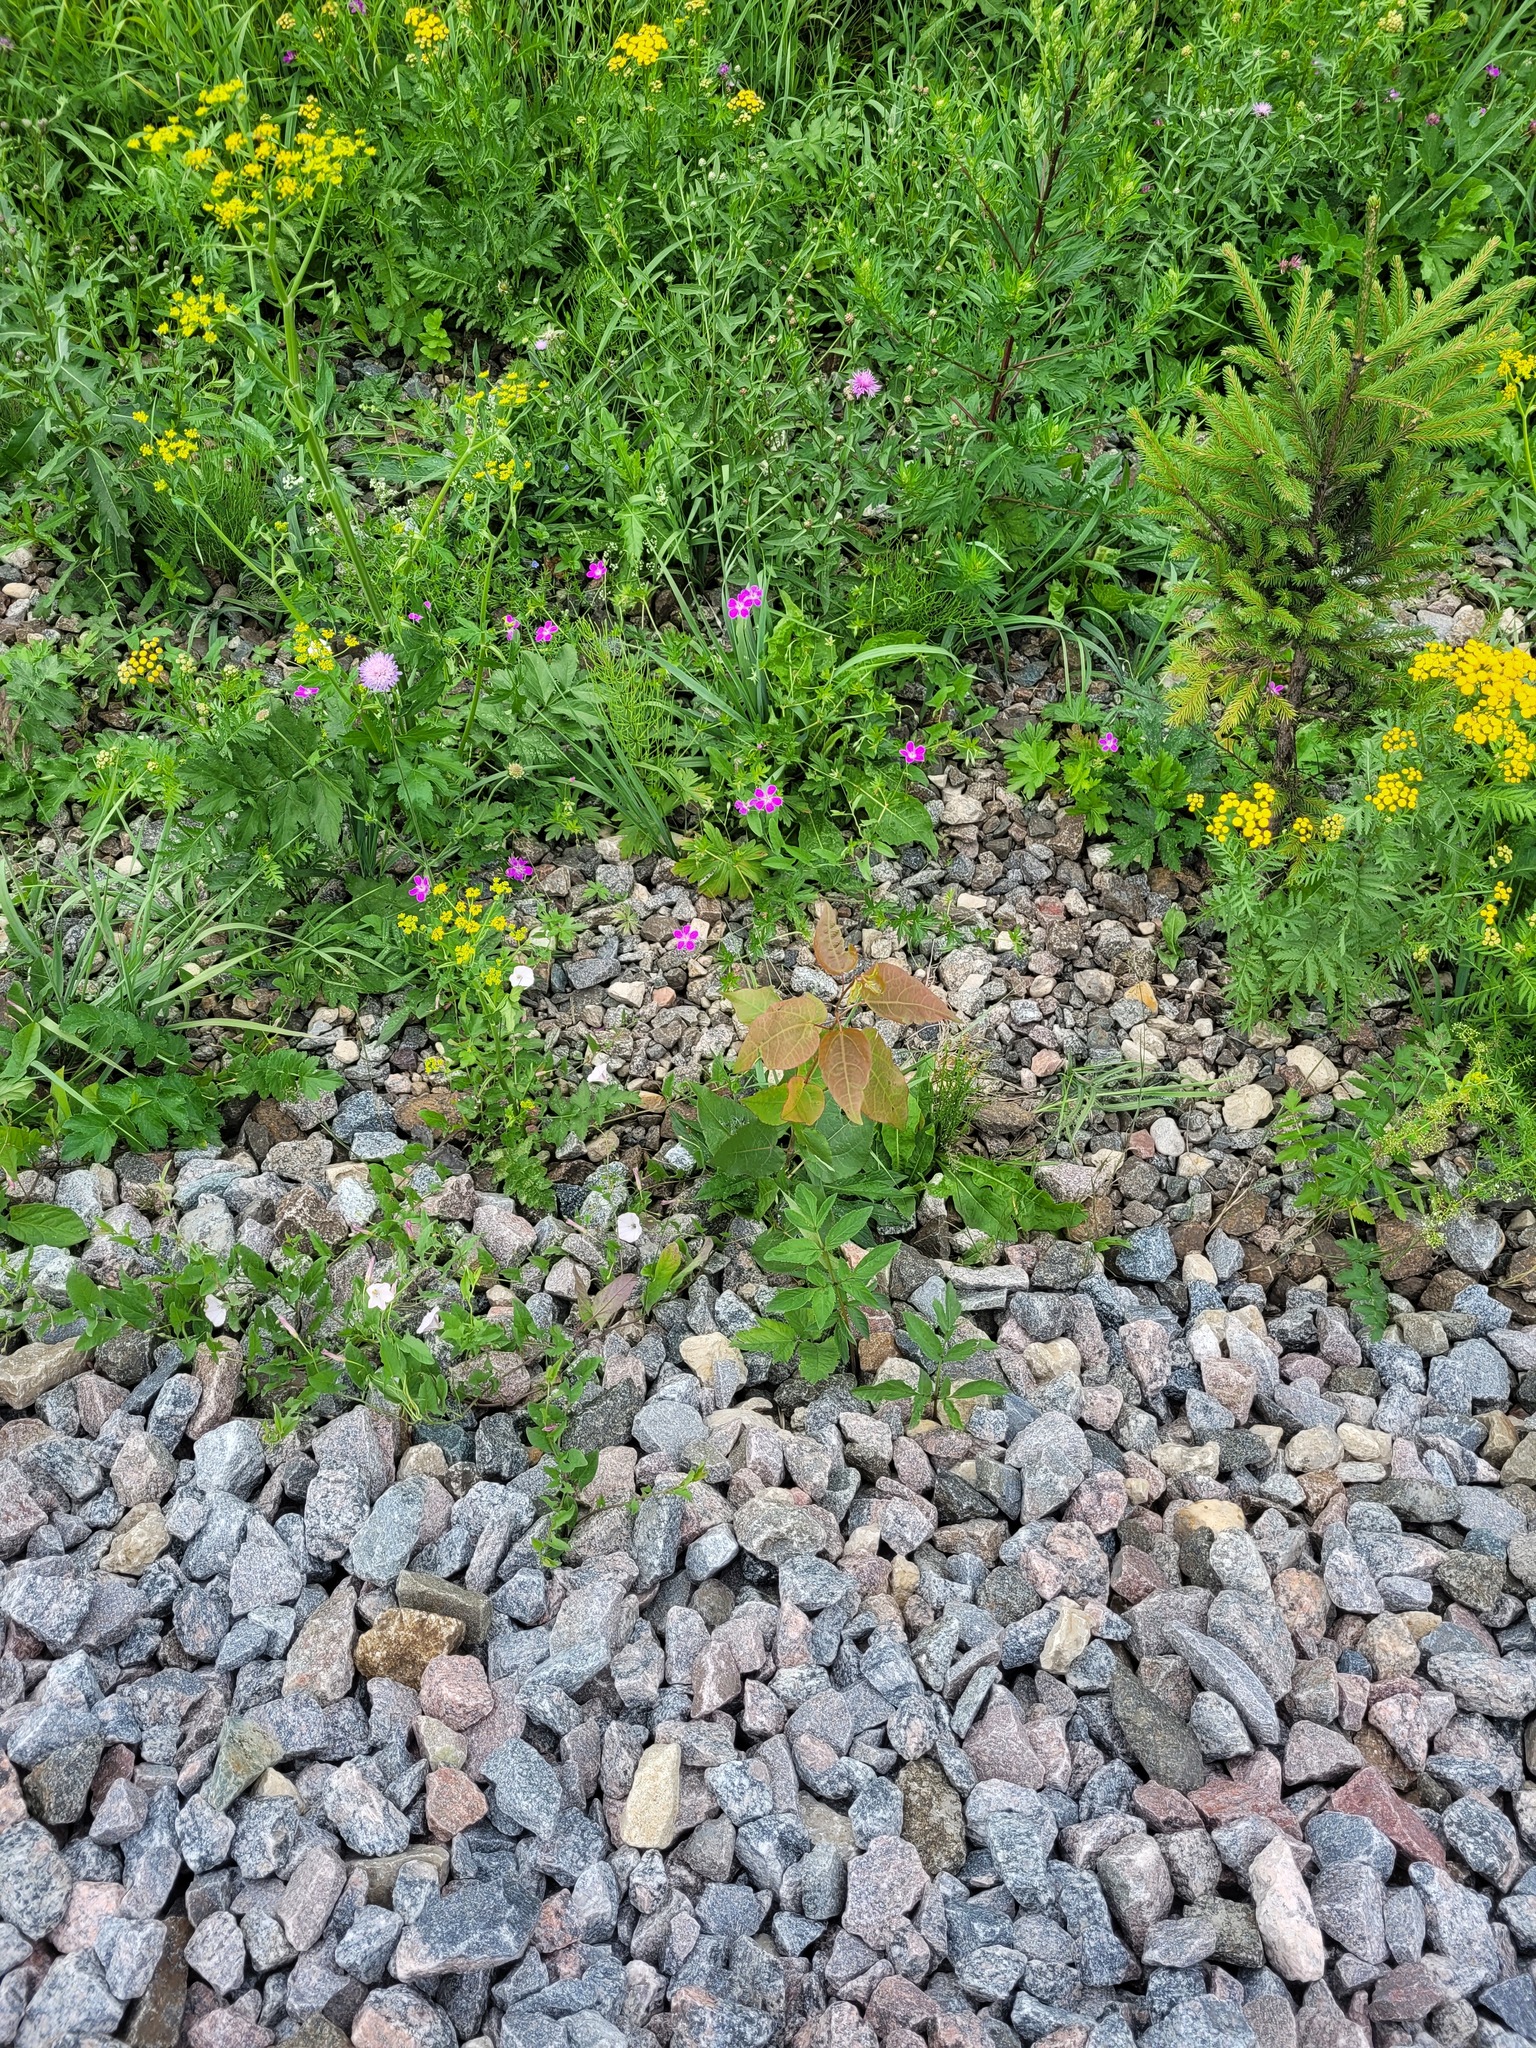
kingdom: Plantae
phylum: Tracheophyta
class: Magnoliopsida
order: Malpighiales
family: Salicaceae
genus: Populus
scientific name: Populus tremula
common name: European aspen
